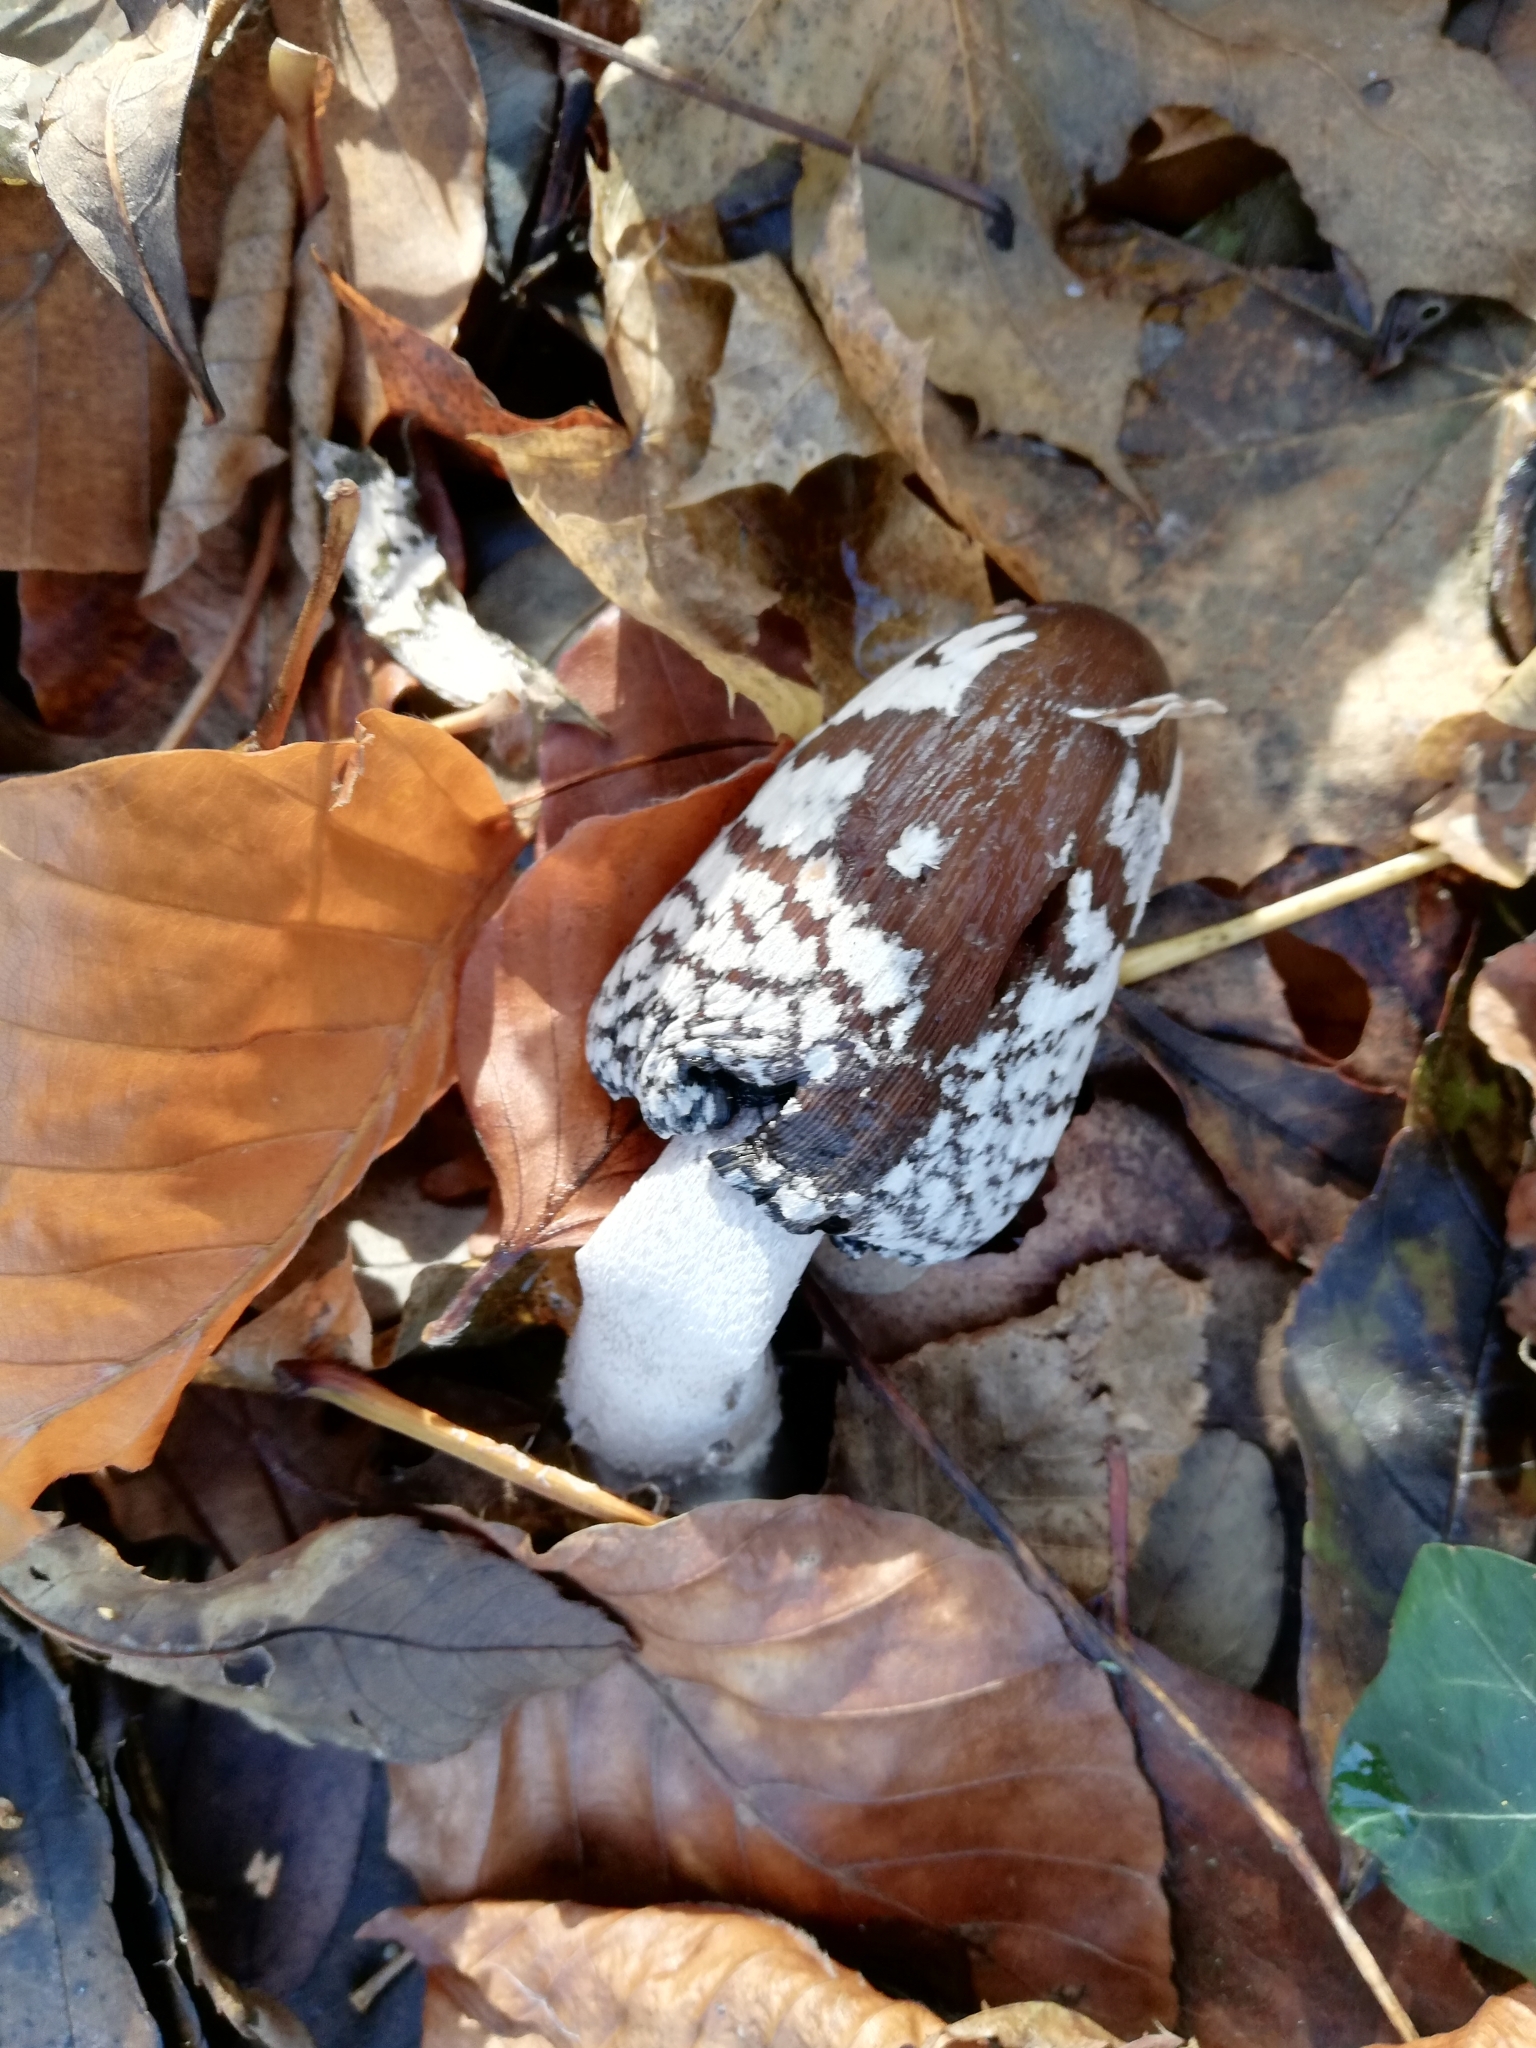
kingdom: Fungi
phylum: Basidiomycota
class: Agaricomycetes
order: Agaricales
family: Psathyrellaceae
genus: Coprinopsis
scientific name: Coprinopsis picacea
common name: Magpie inkcap
